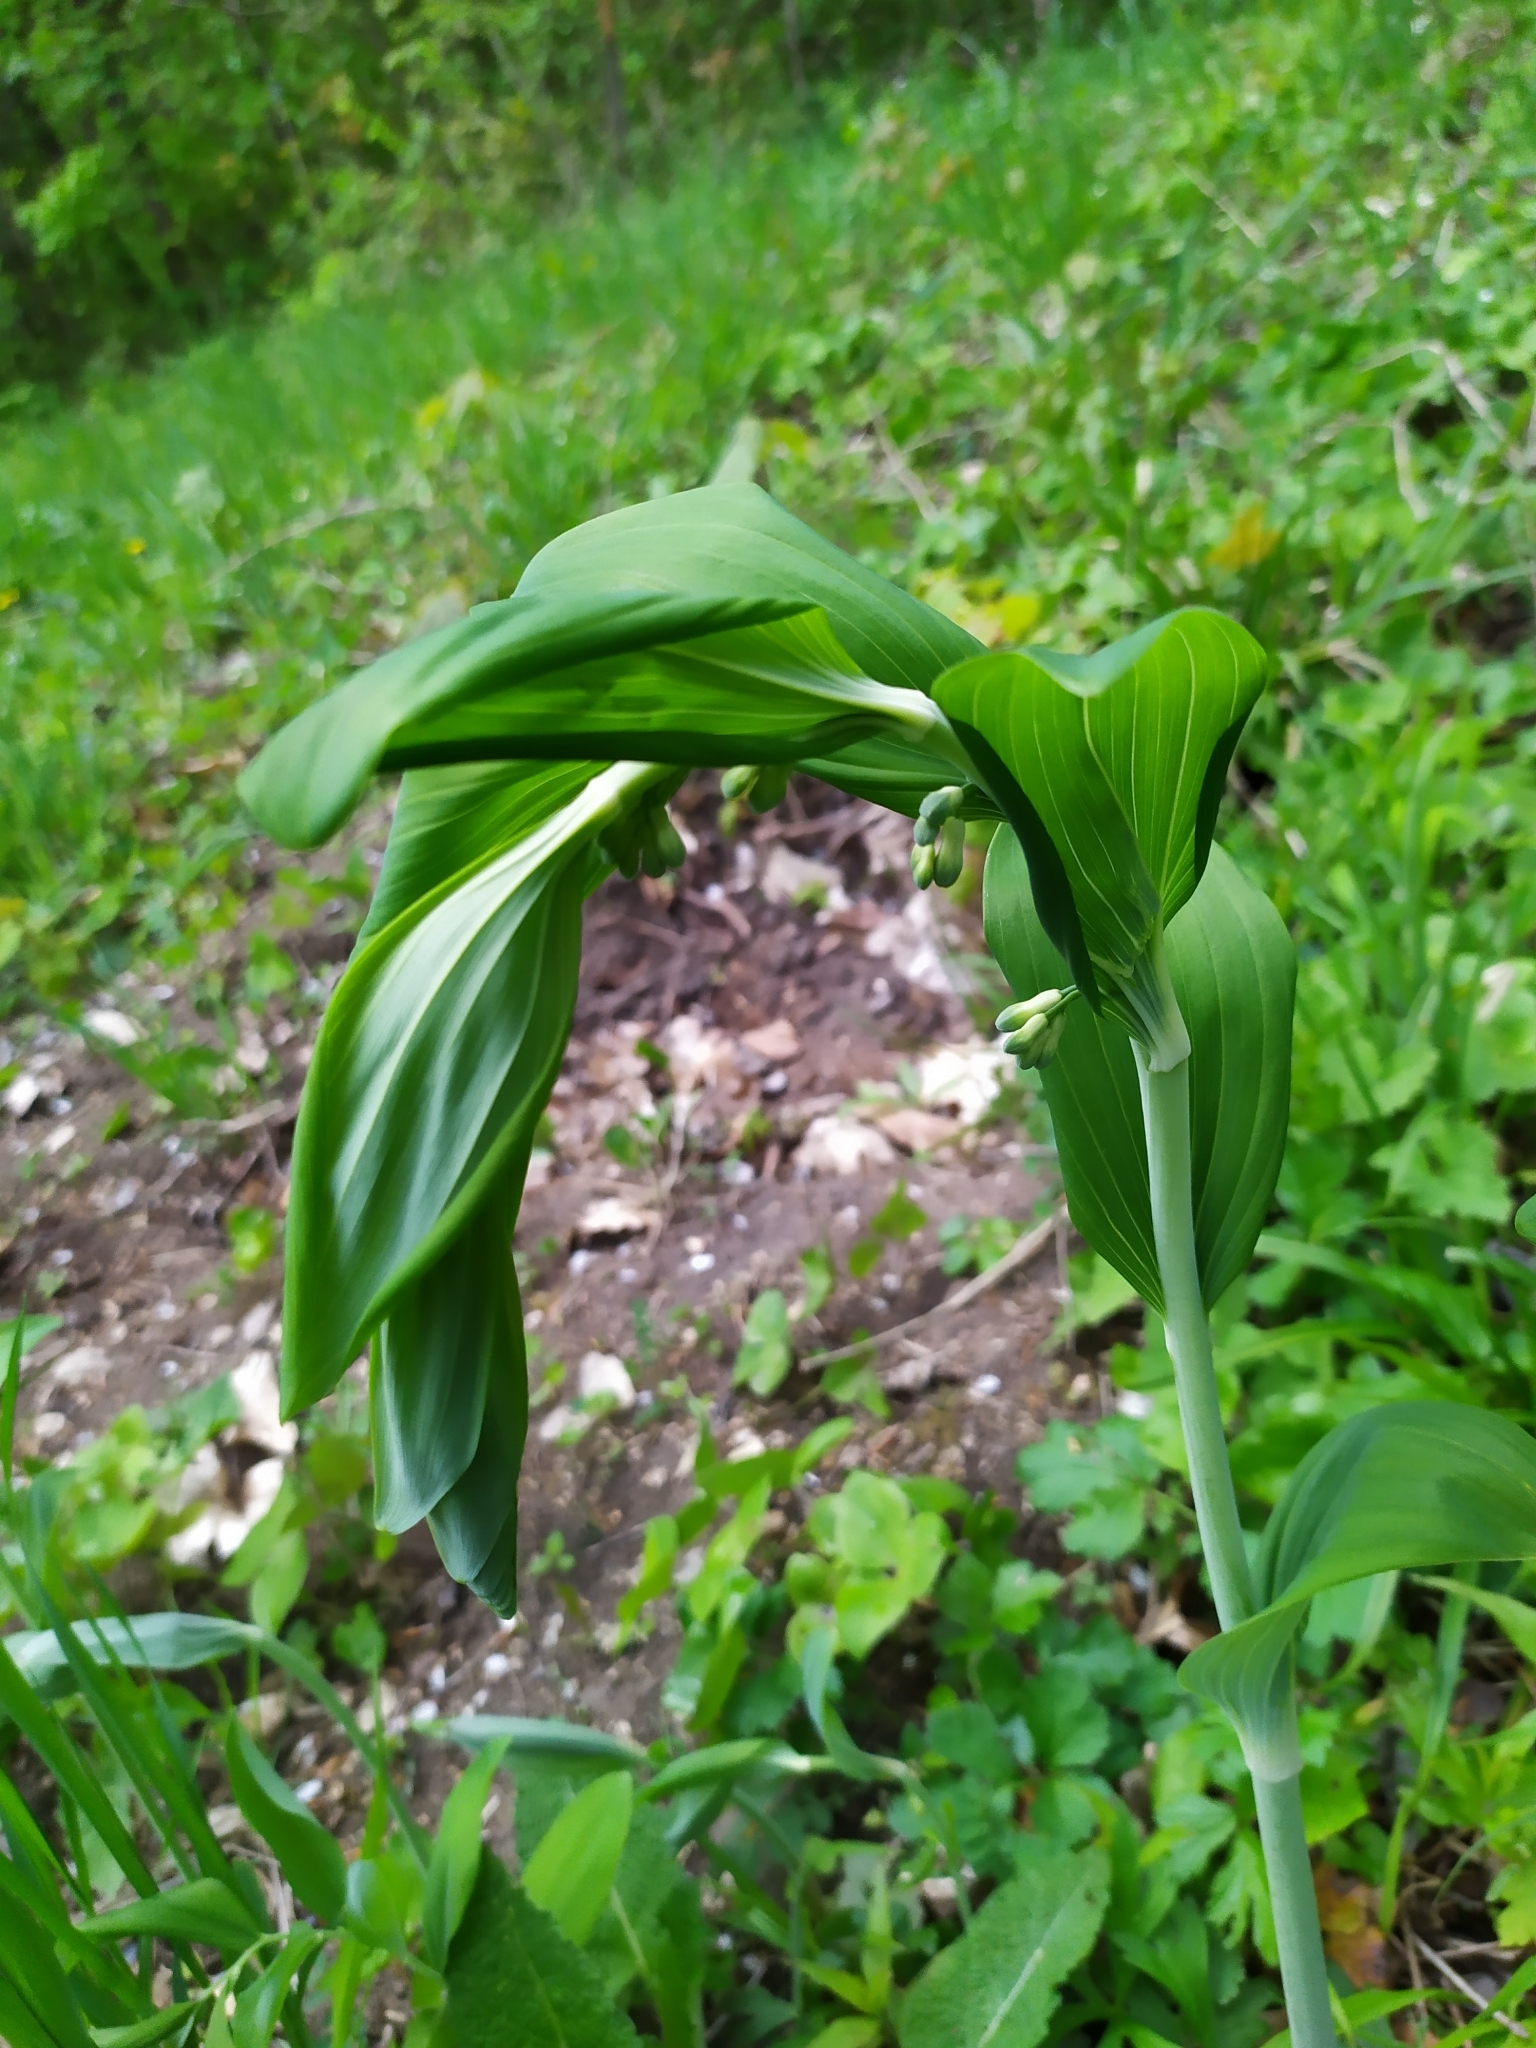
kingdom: Plantae
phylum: Tracheophyta
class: Liliopsida
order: Asparagales
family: Asparagaceae
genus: Polygonatum
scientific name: Polygonatum multiflorum
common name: Solomon's-seal
